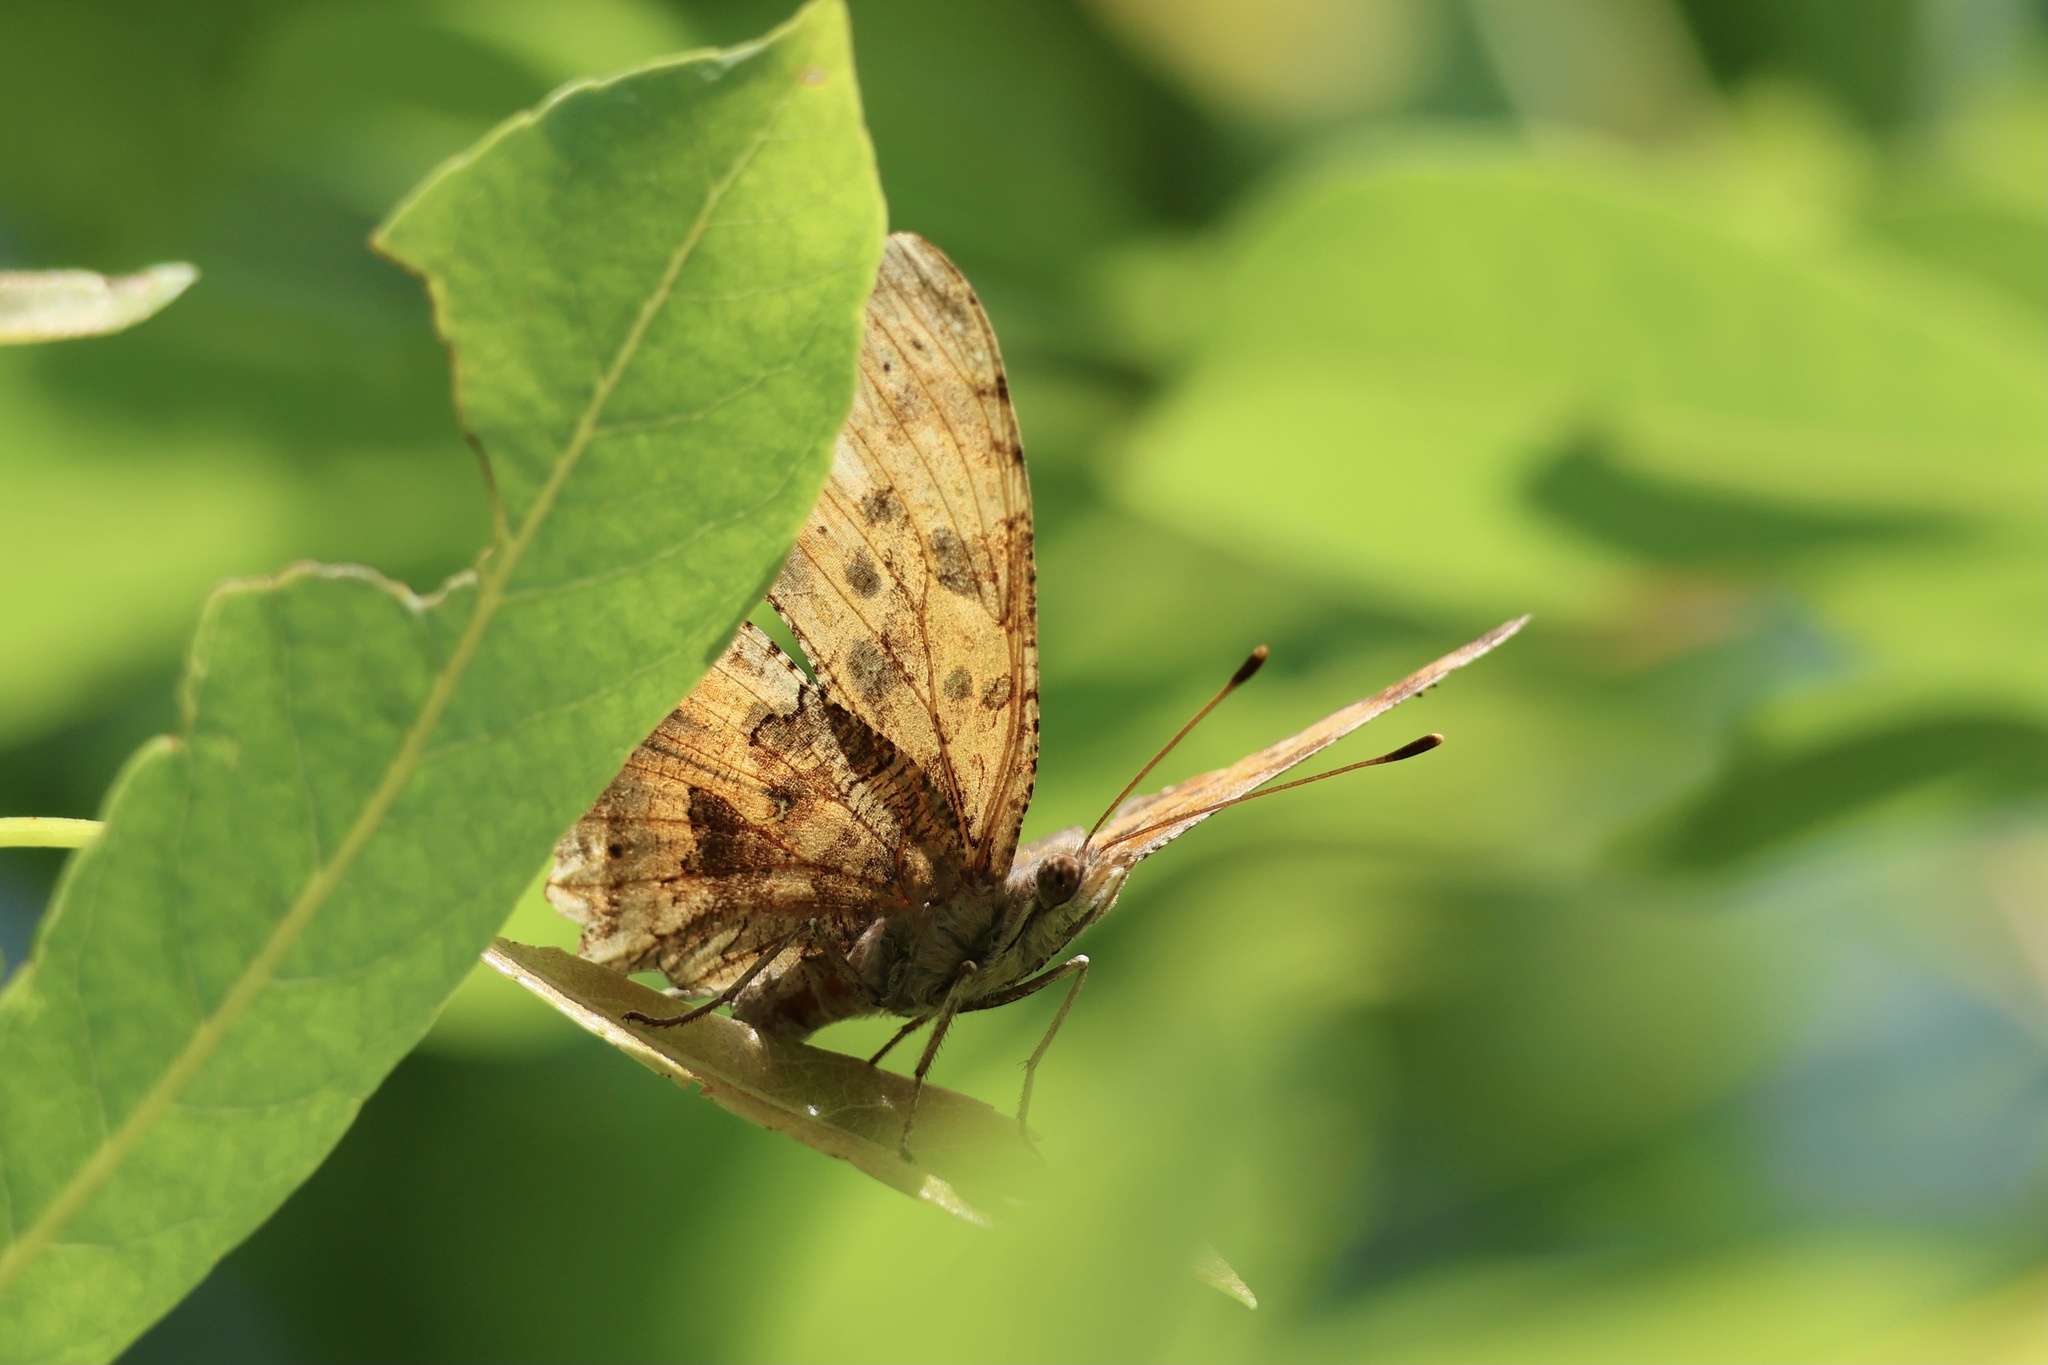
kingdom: Animalia
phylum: Arthropoda
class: Insecta
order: Lepidoptera
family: Nymphalidae
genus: Polygonia
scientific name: Polygonia comma
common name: Eastern comma
